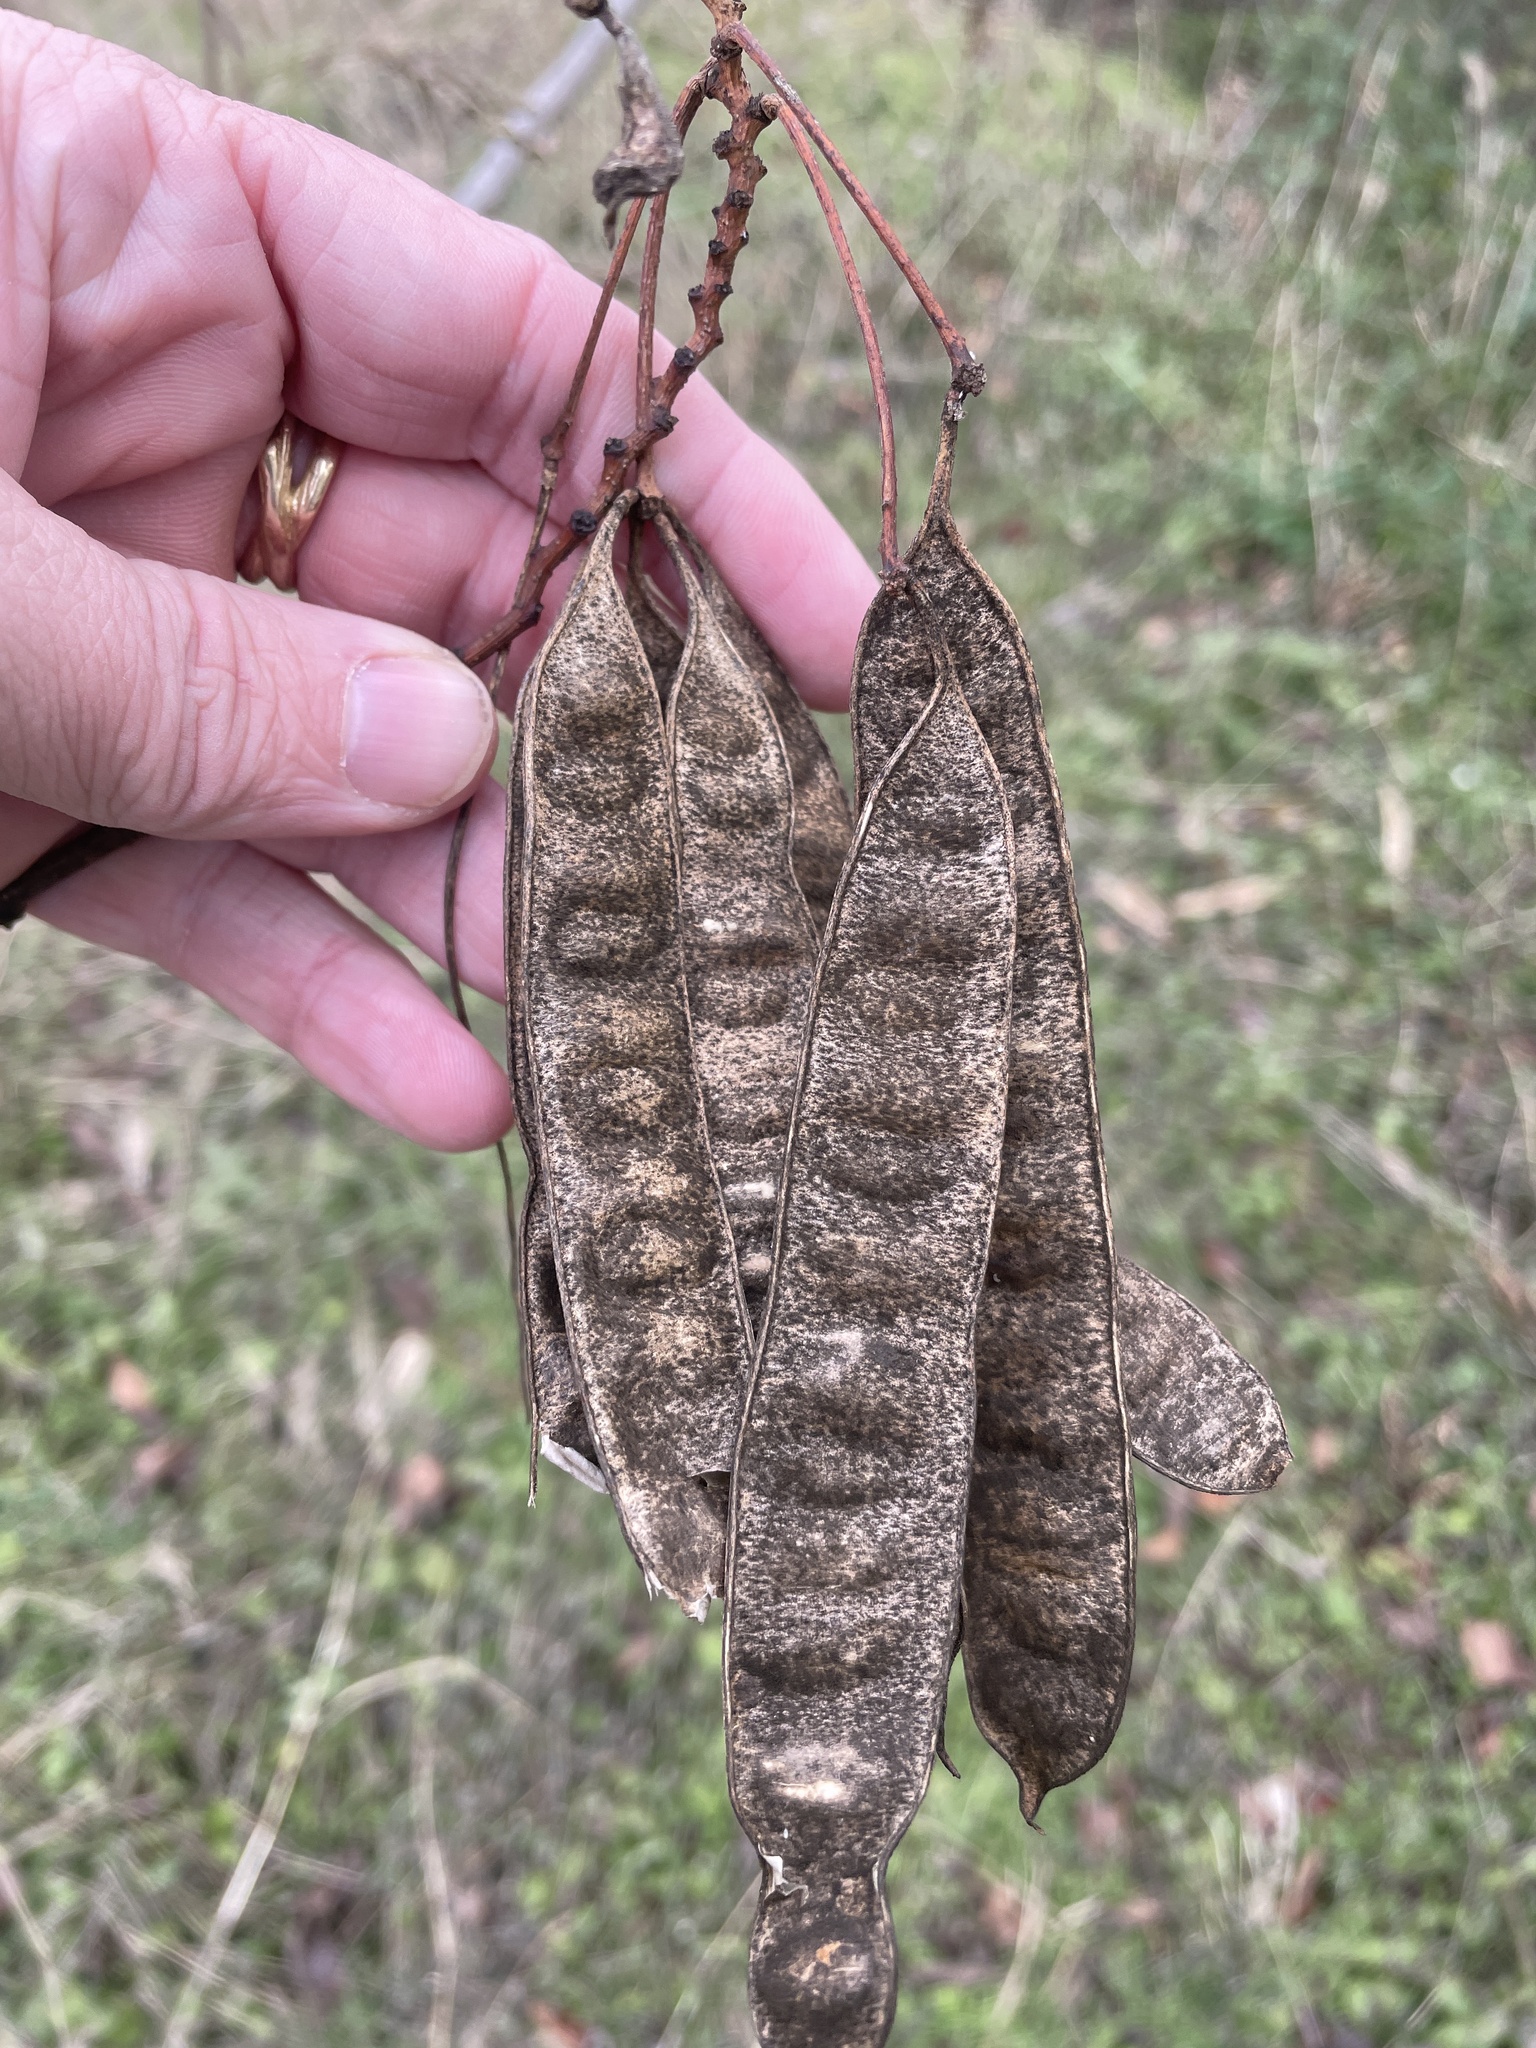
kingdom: Plantae
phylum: Tracheophyta
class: Magnoliopsida
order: Fabales
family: Fabaceae
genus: Albizia
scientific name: Albizia julibrissin
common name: Silktree
